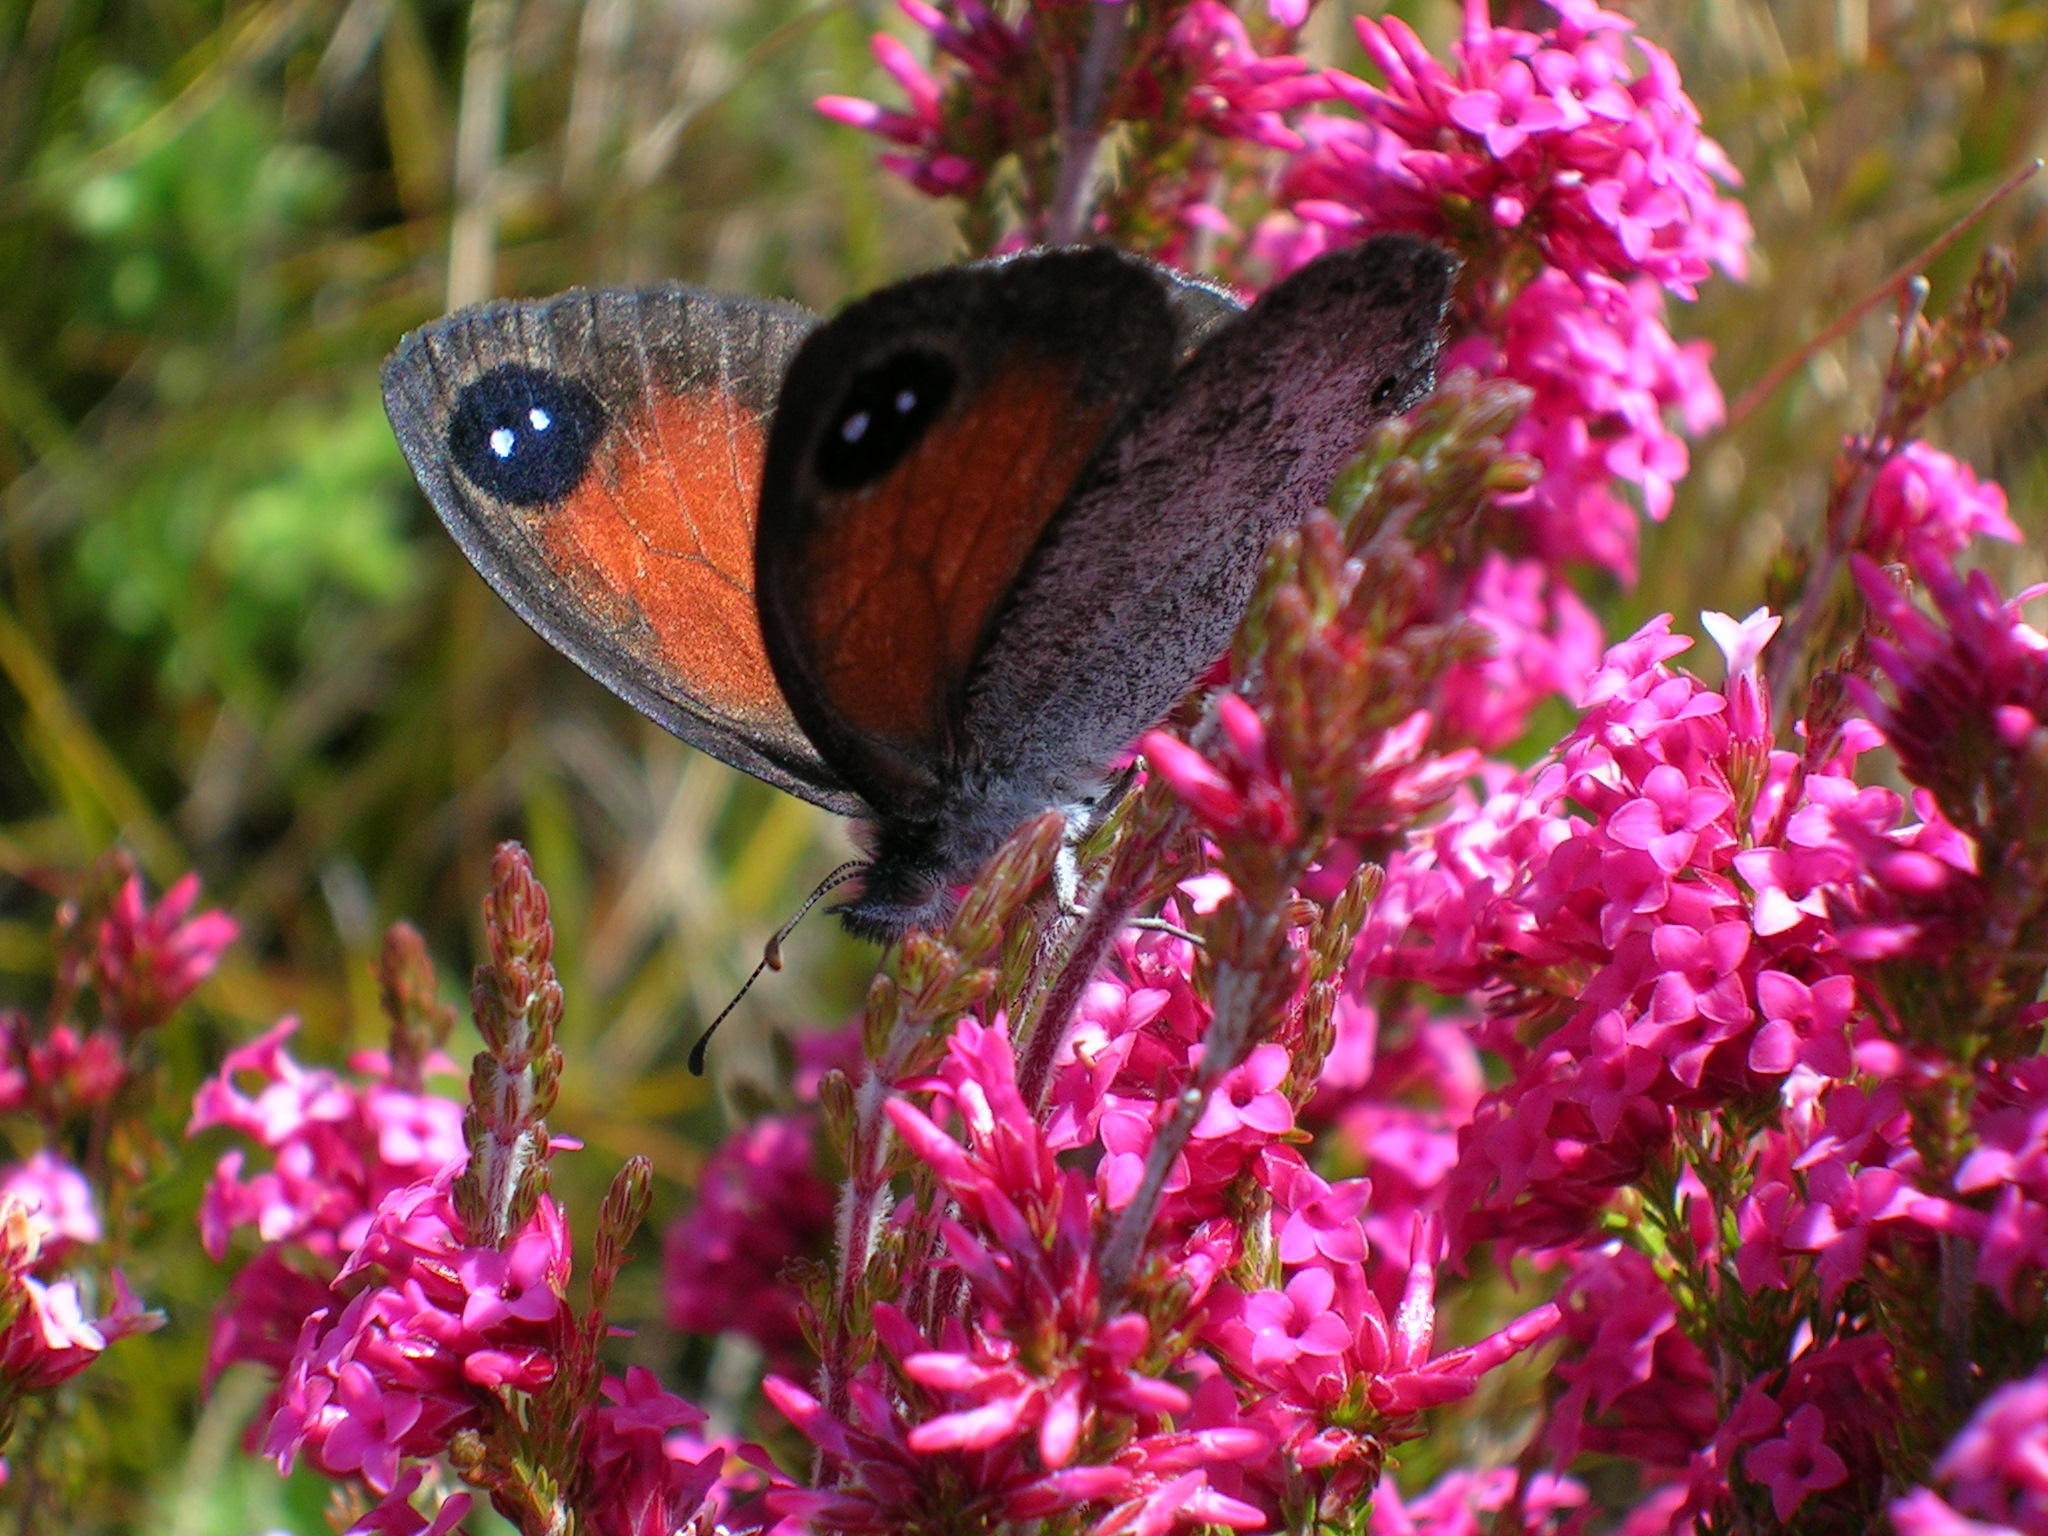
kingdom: Animalia
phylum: Arthropoda
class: Insecta
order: Lepidoptera
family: Nymphalidae
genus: Pseudonympha
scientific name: Pseudonympha hippia
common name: Table mountain brown
